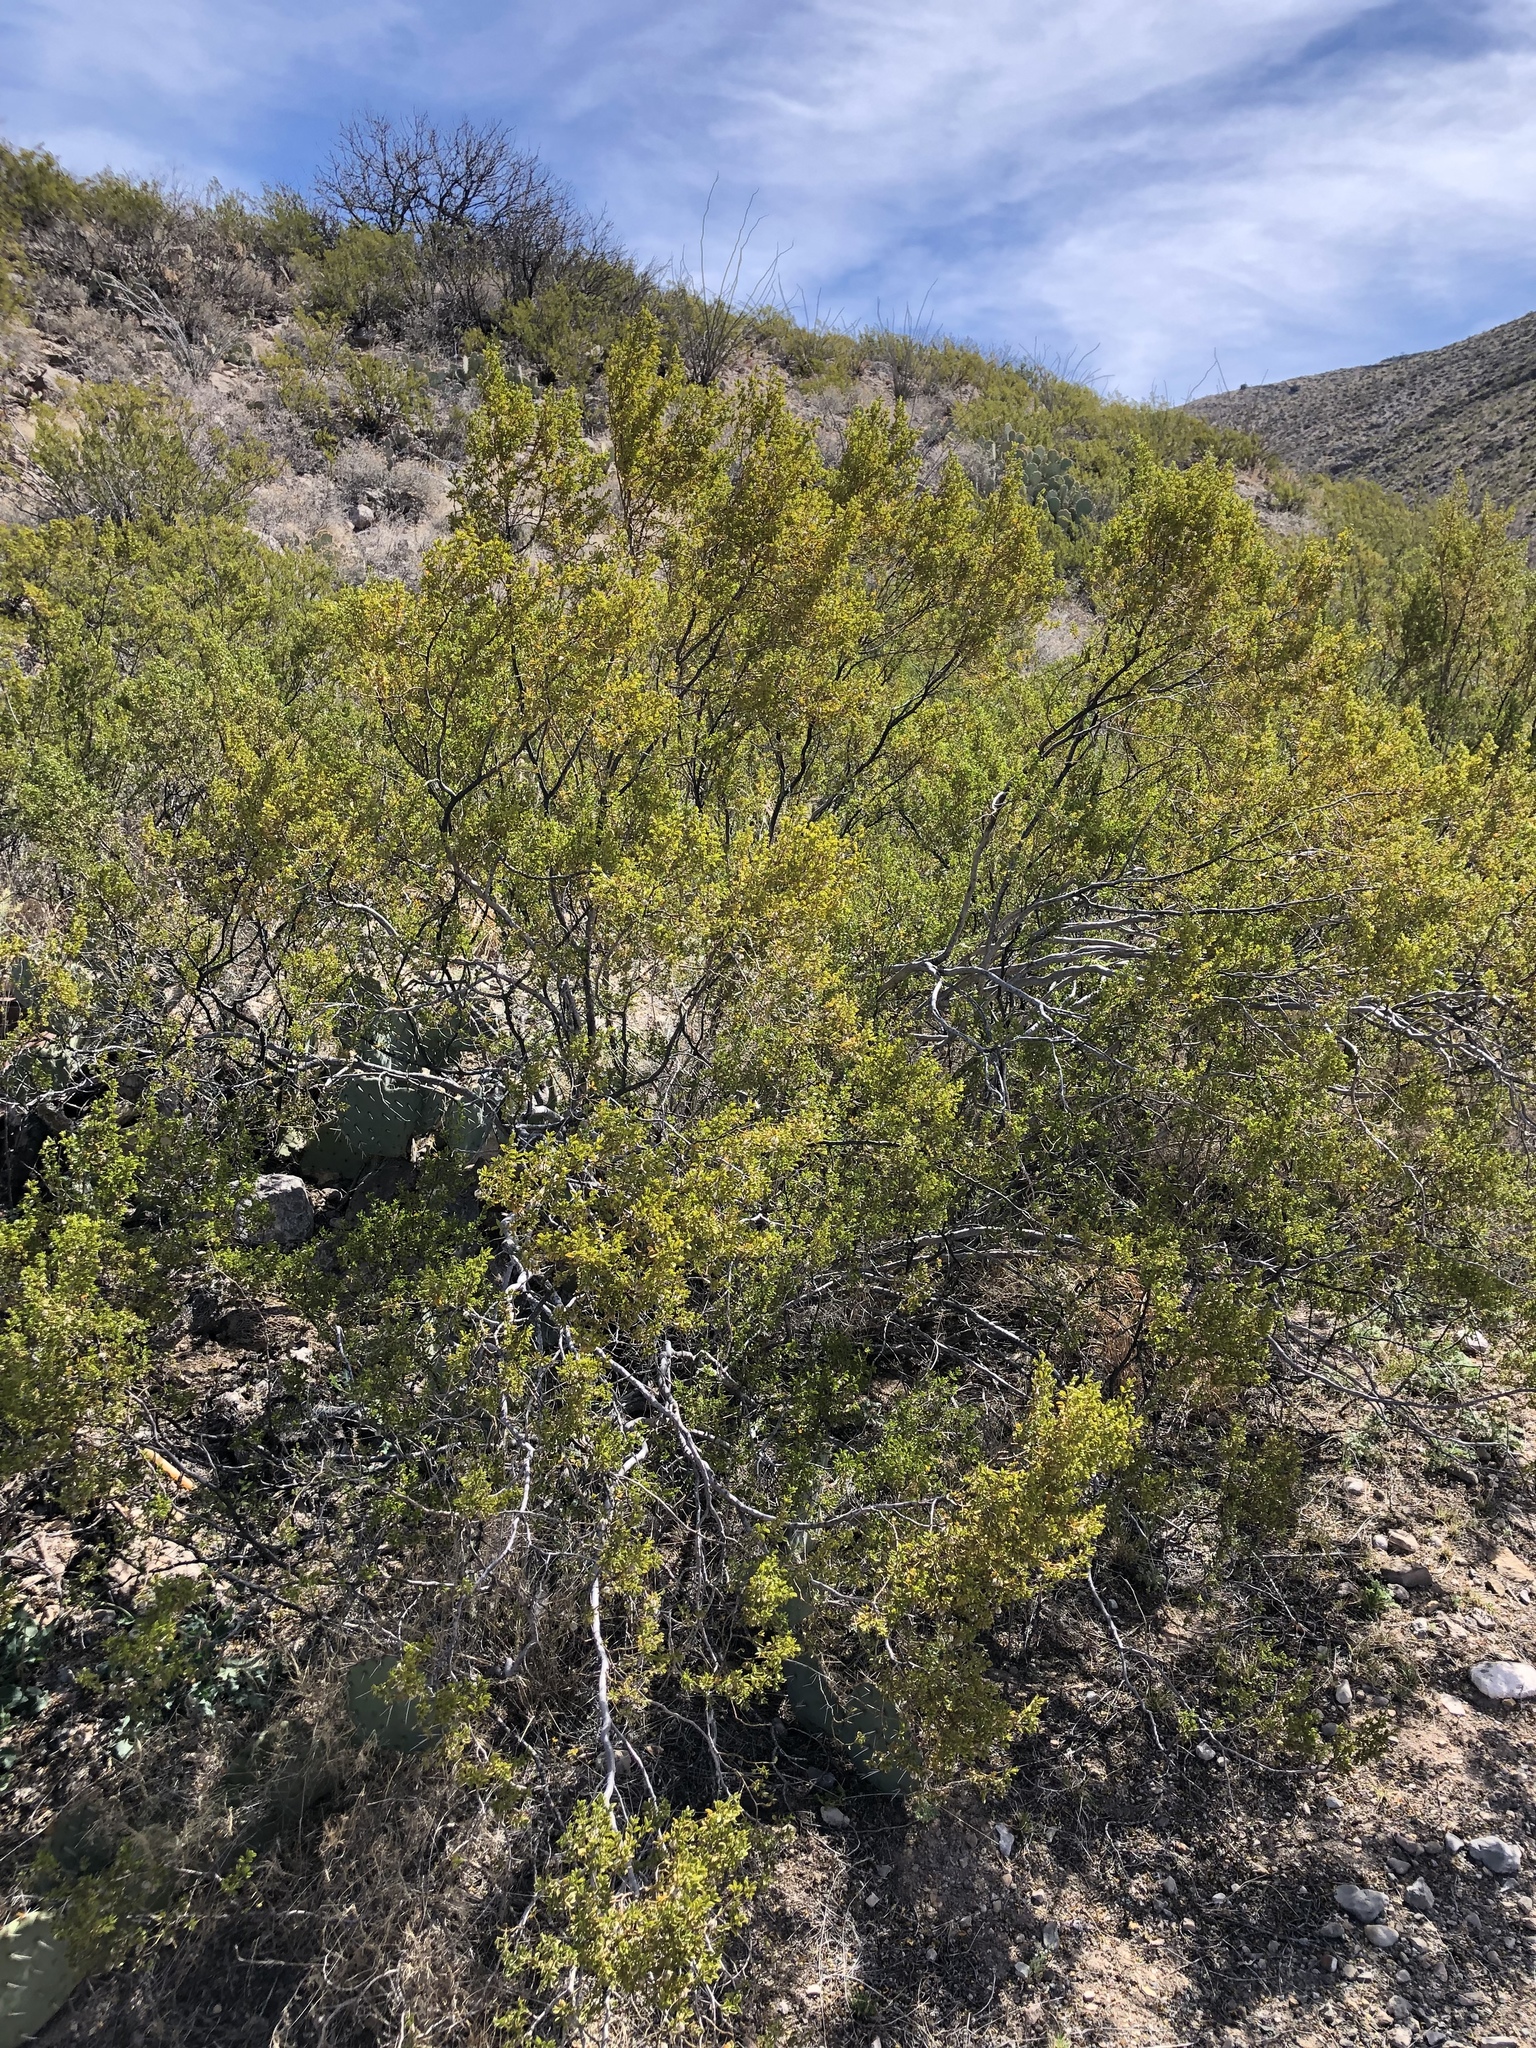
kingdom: Plantae
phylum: Tracheophyta
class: Magnoliopsida
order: Zygophyllales
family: Zygophyllaceae
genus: Larrea
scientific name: Larrea tridentata
